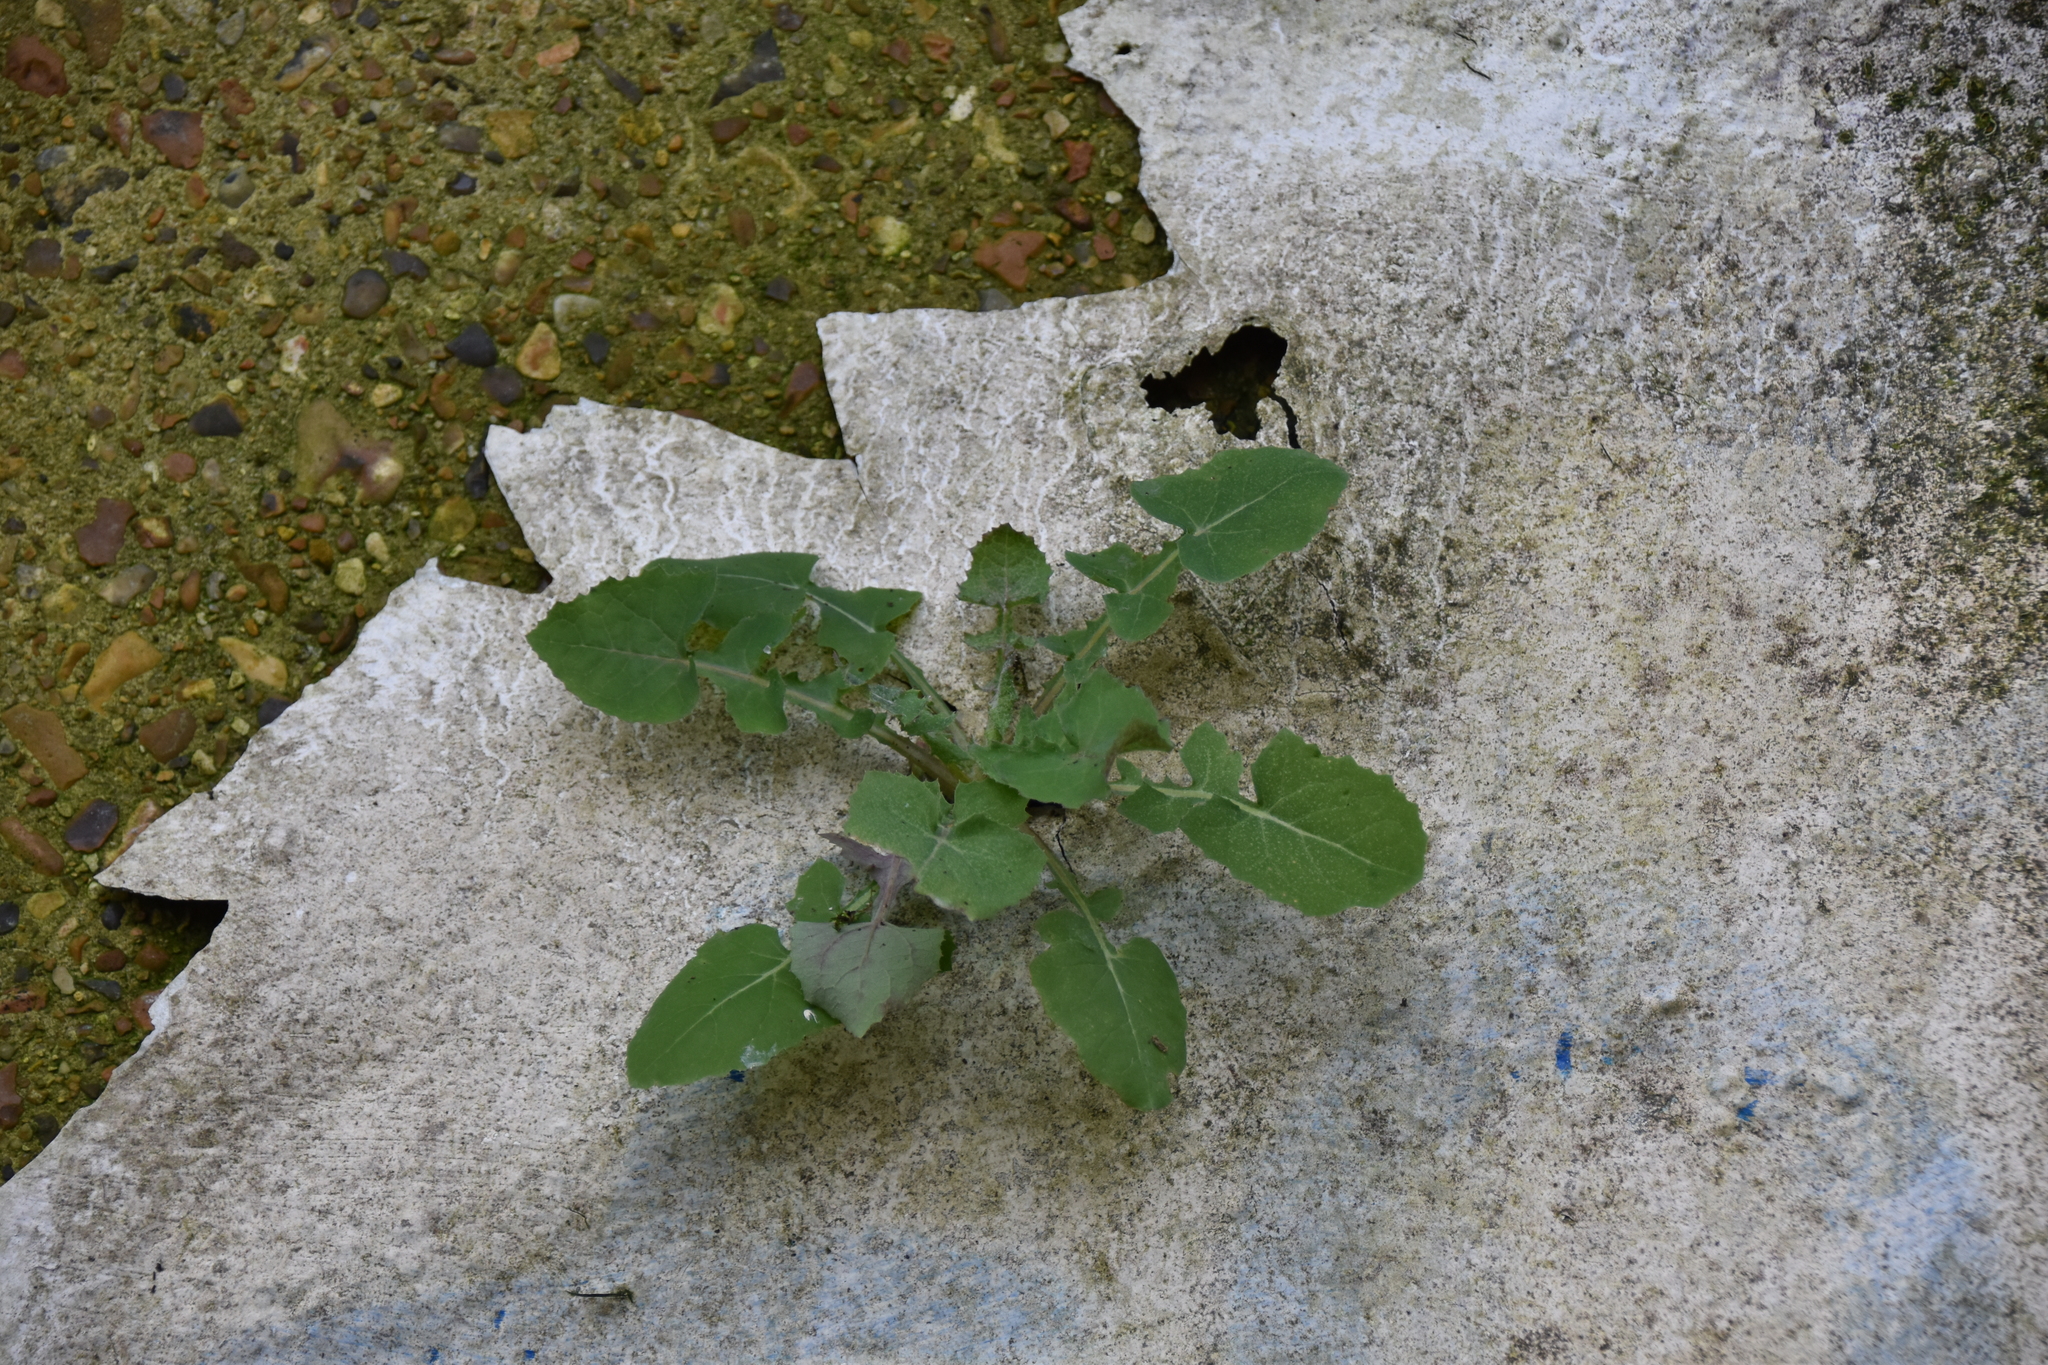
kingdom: Plantae
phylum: Tracheophyta
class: Magnoliopsida
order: Asterales
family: Asteraceae
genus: Sonchus
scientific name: Sonchus oleraceus
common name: Common sowthistle
